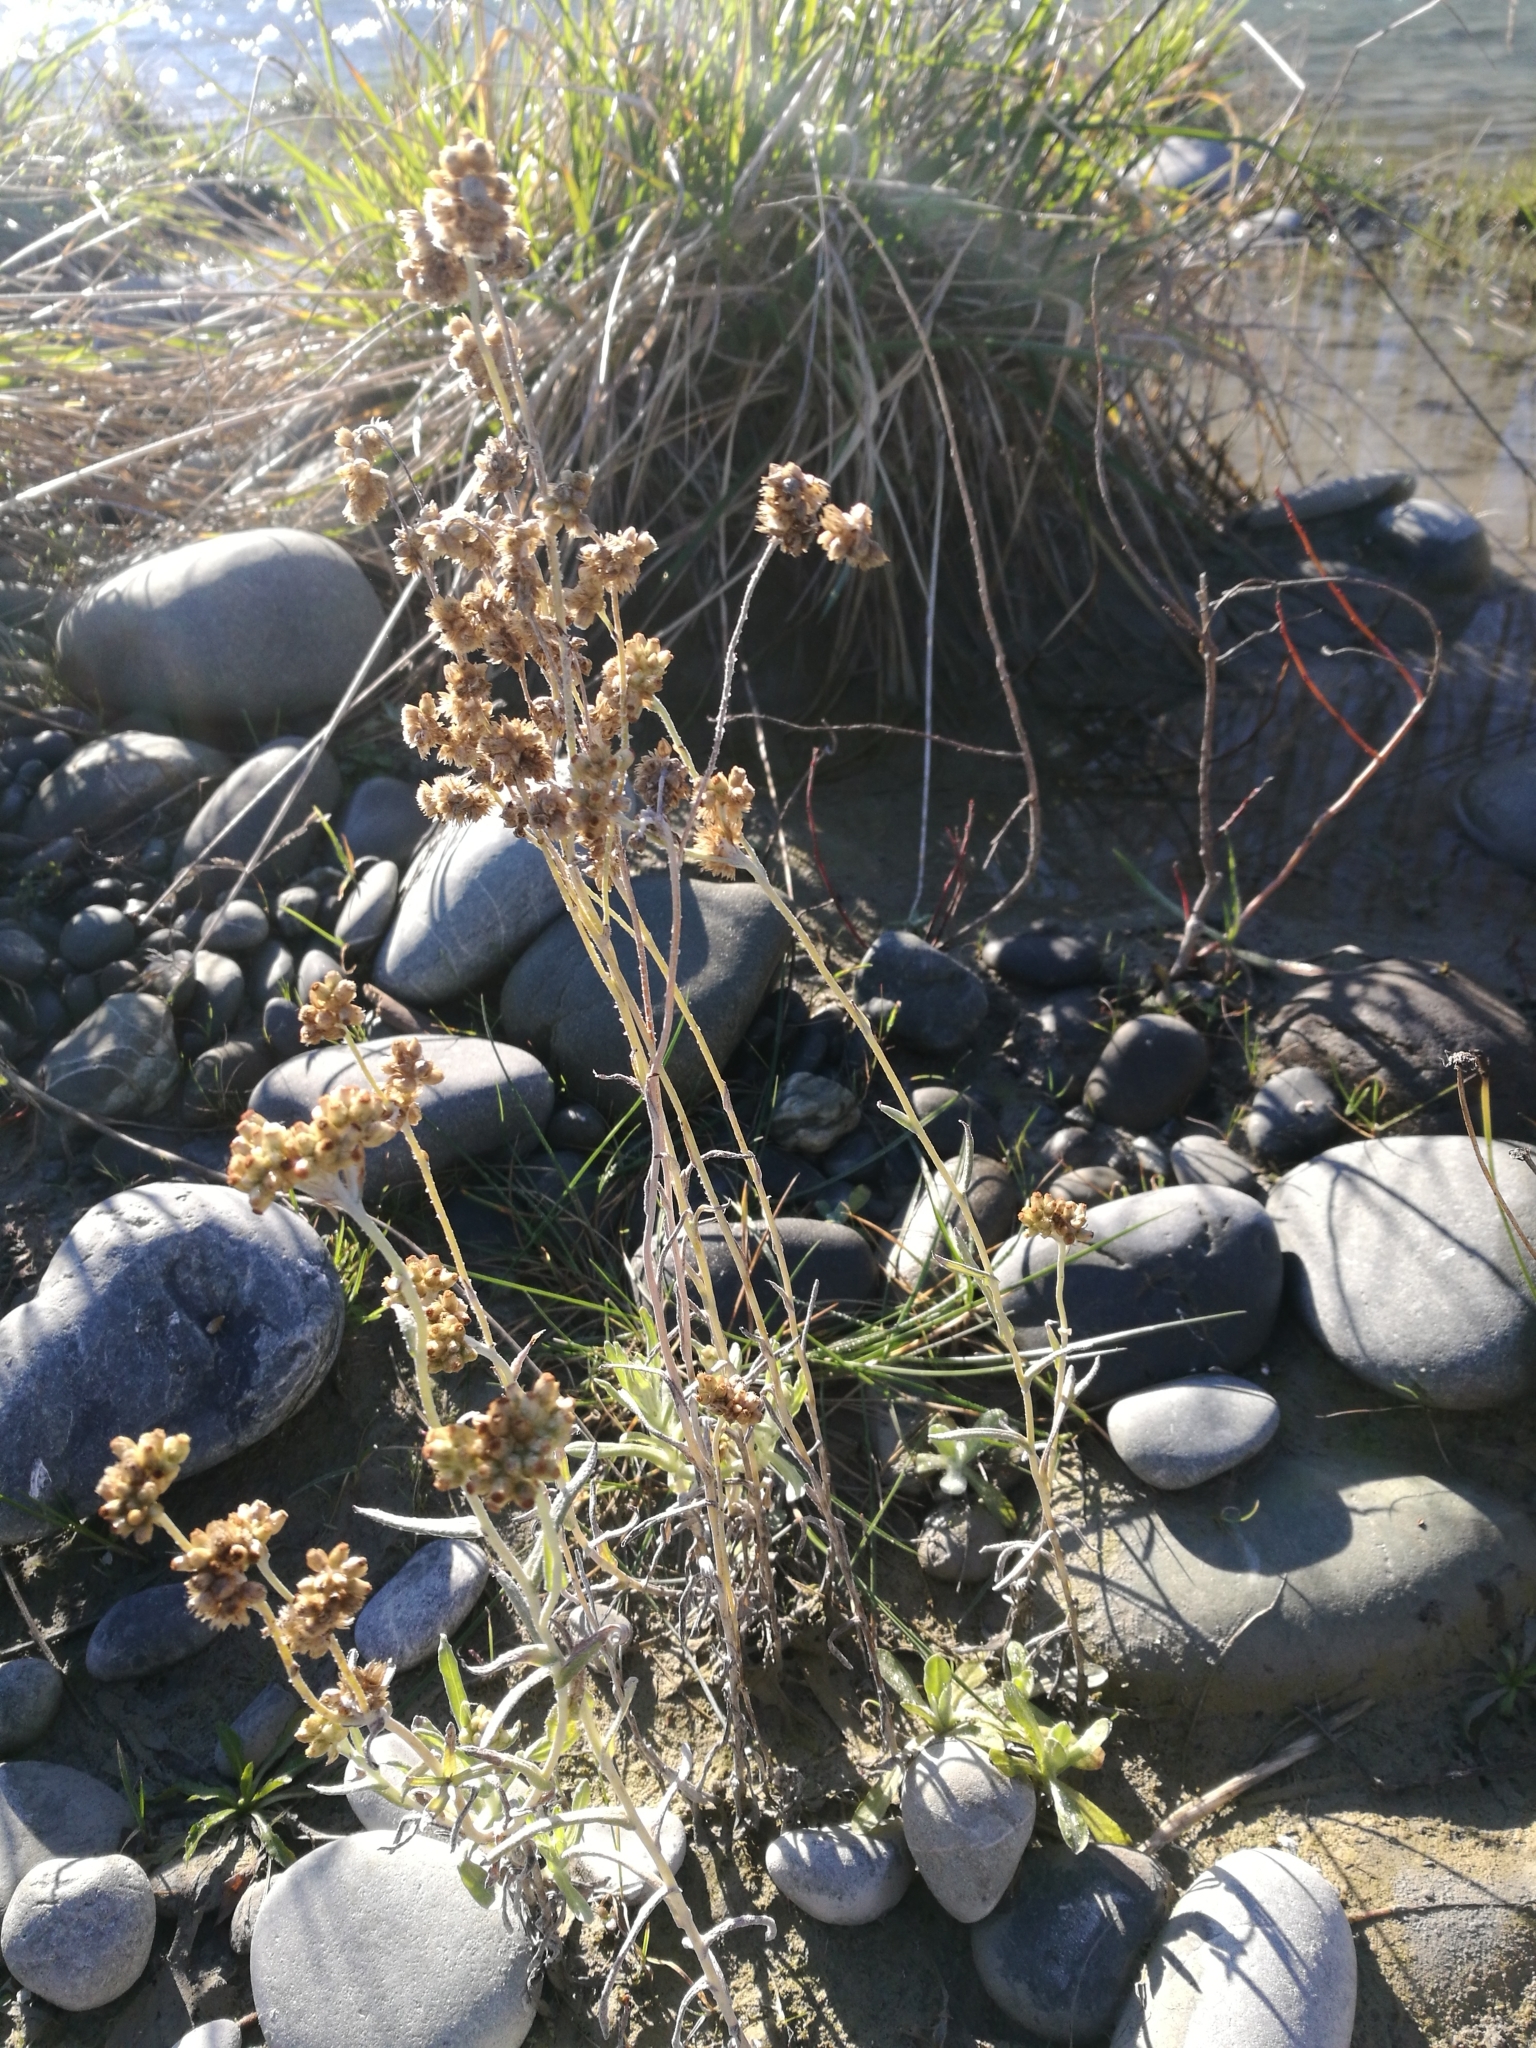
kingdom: Plantae
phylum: Tracheophyta
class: Magnoliopsida
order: Asterales
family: Asteraceae
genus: Helichrysum
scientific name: Helichrysum luteoalbum
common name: Daisy
